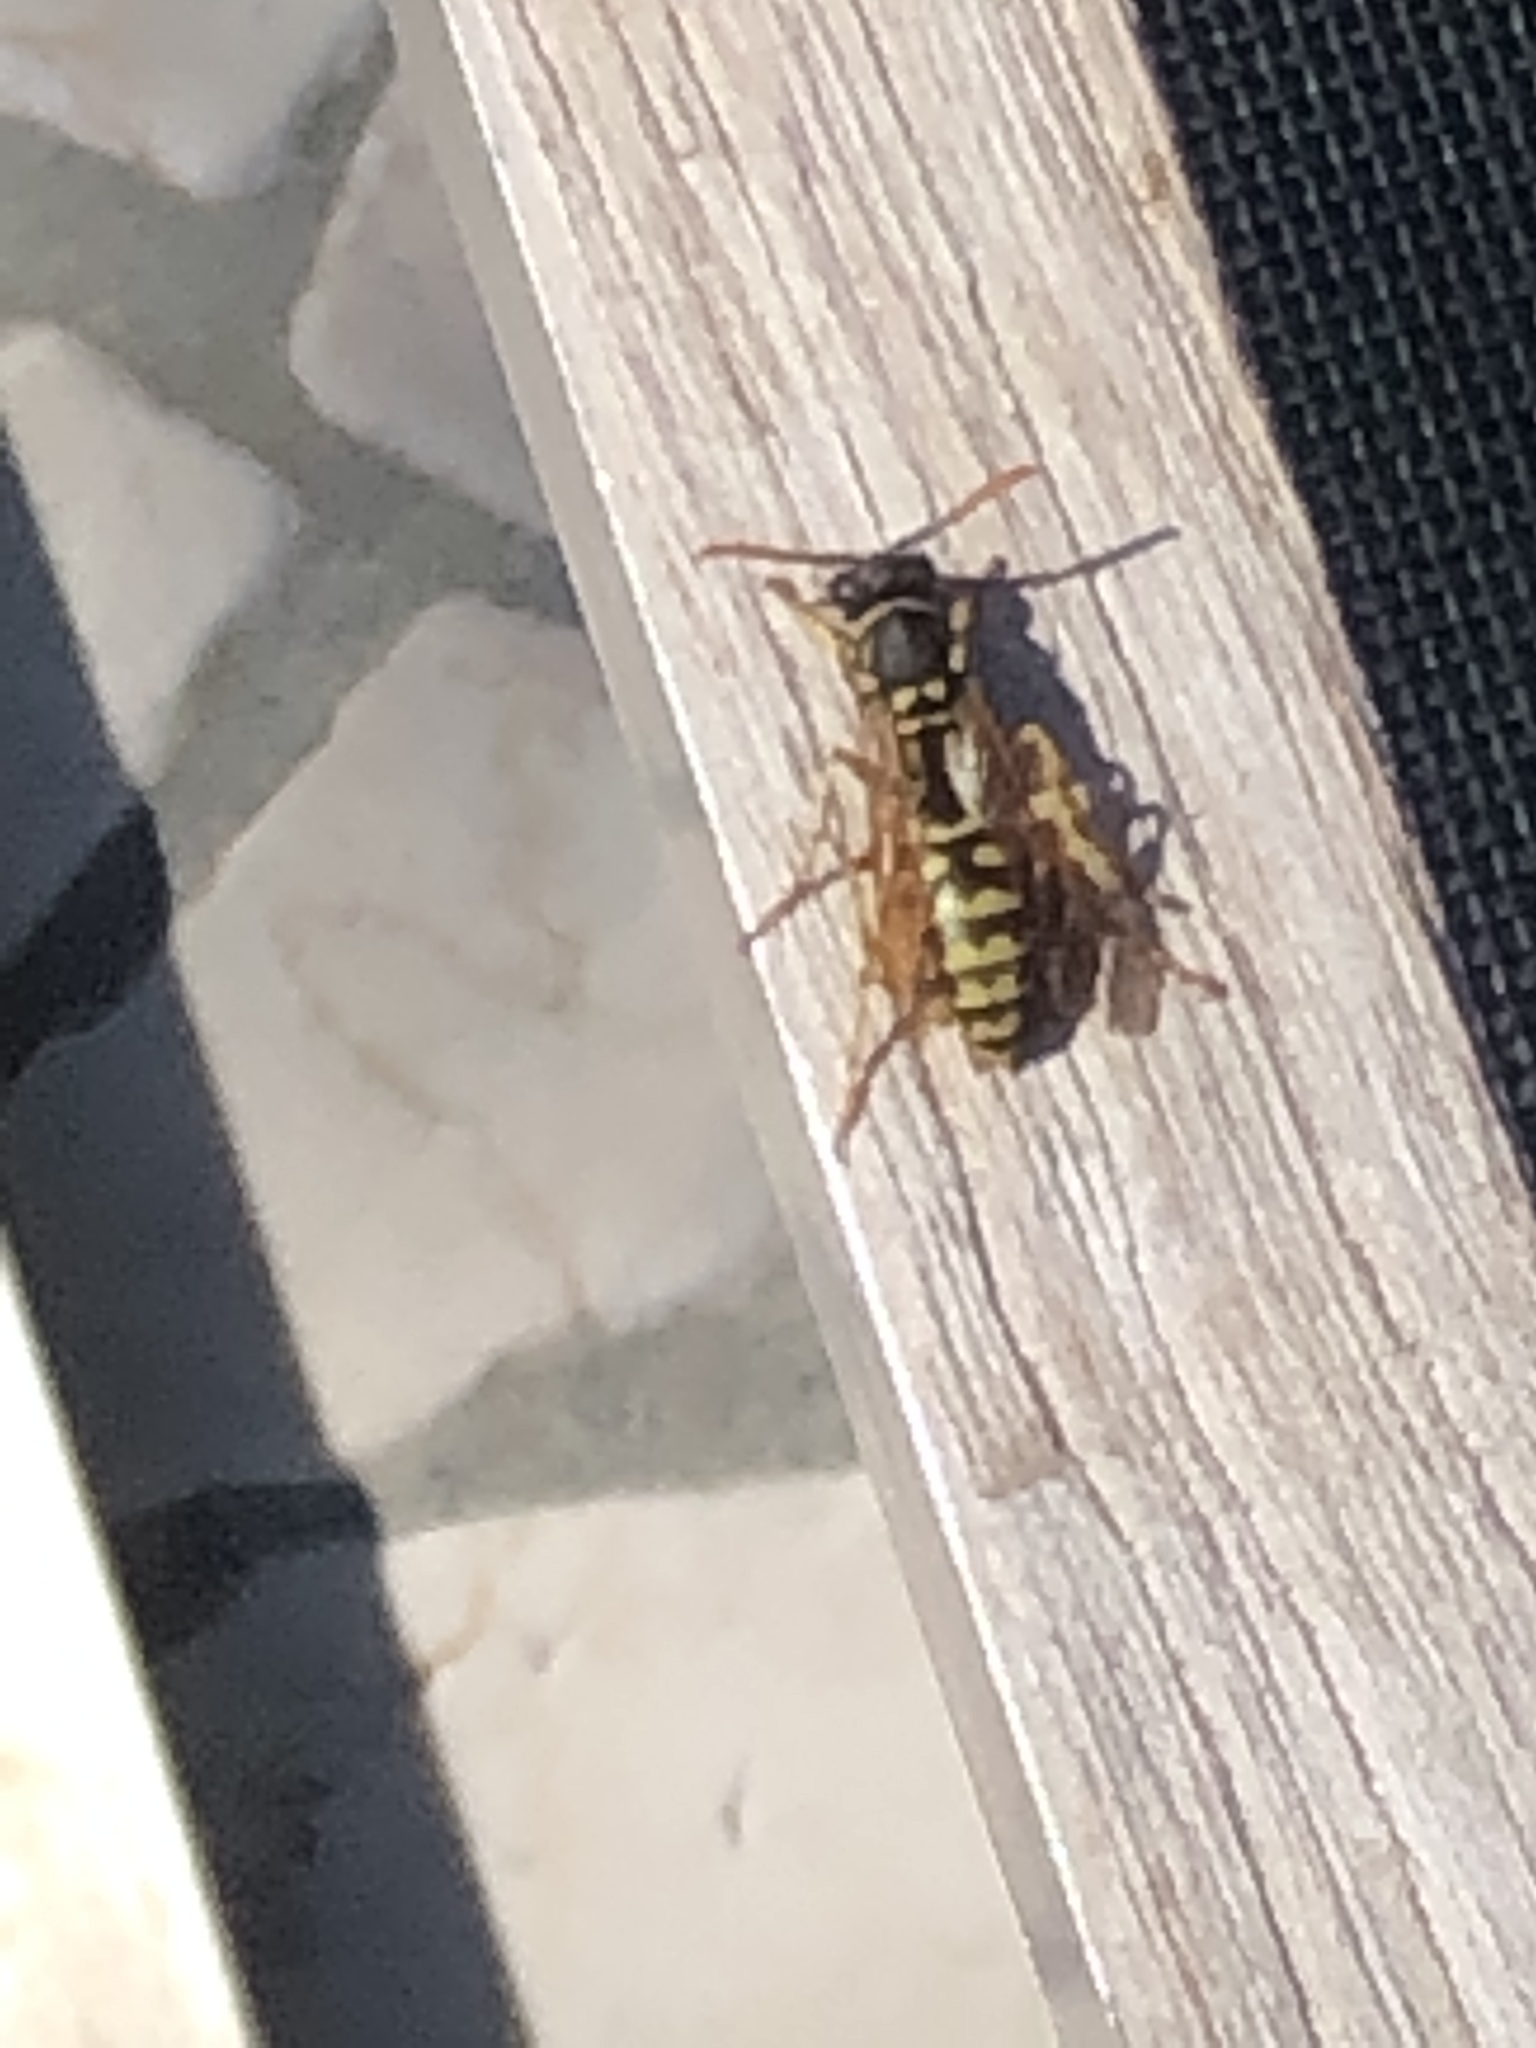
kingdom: Animalia
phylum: Arthropoda
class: Insecta
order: Hymenoptera
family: Eumenidae
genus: Polistes
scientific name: Polistes dominula
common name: Paper wasp
